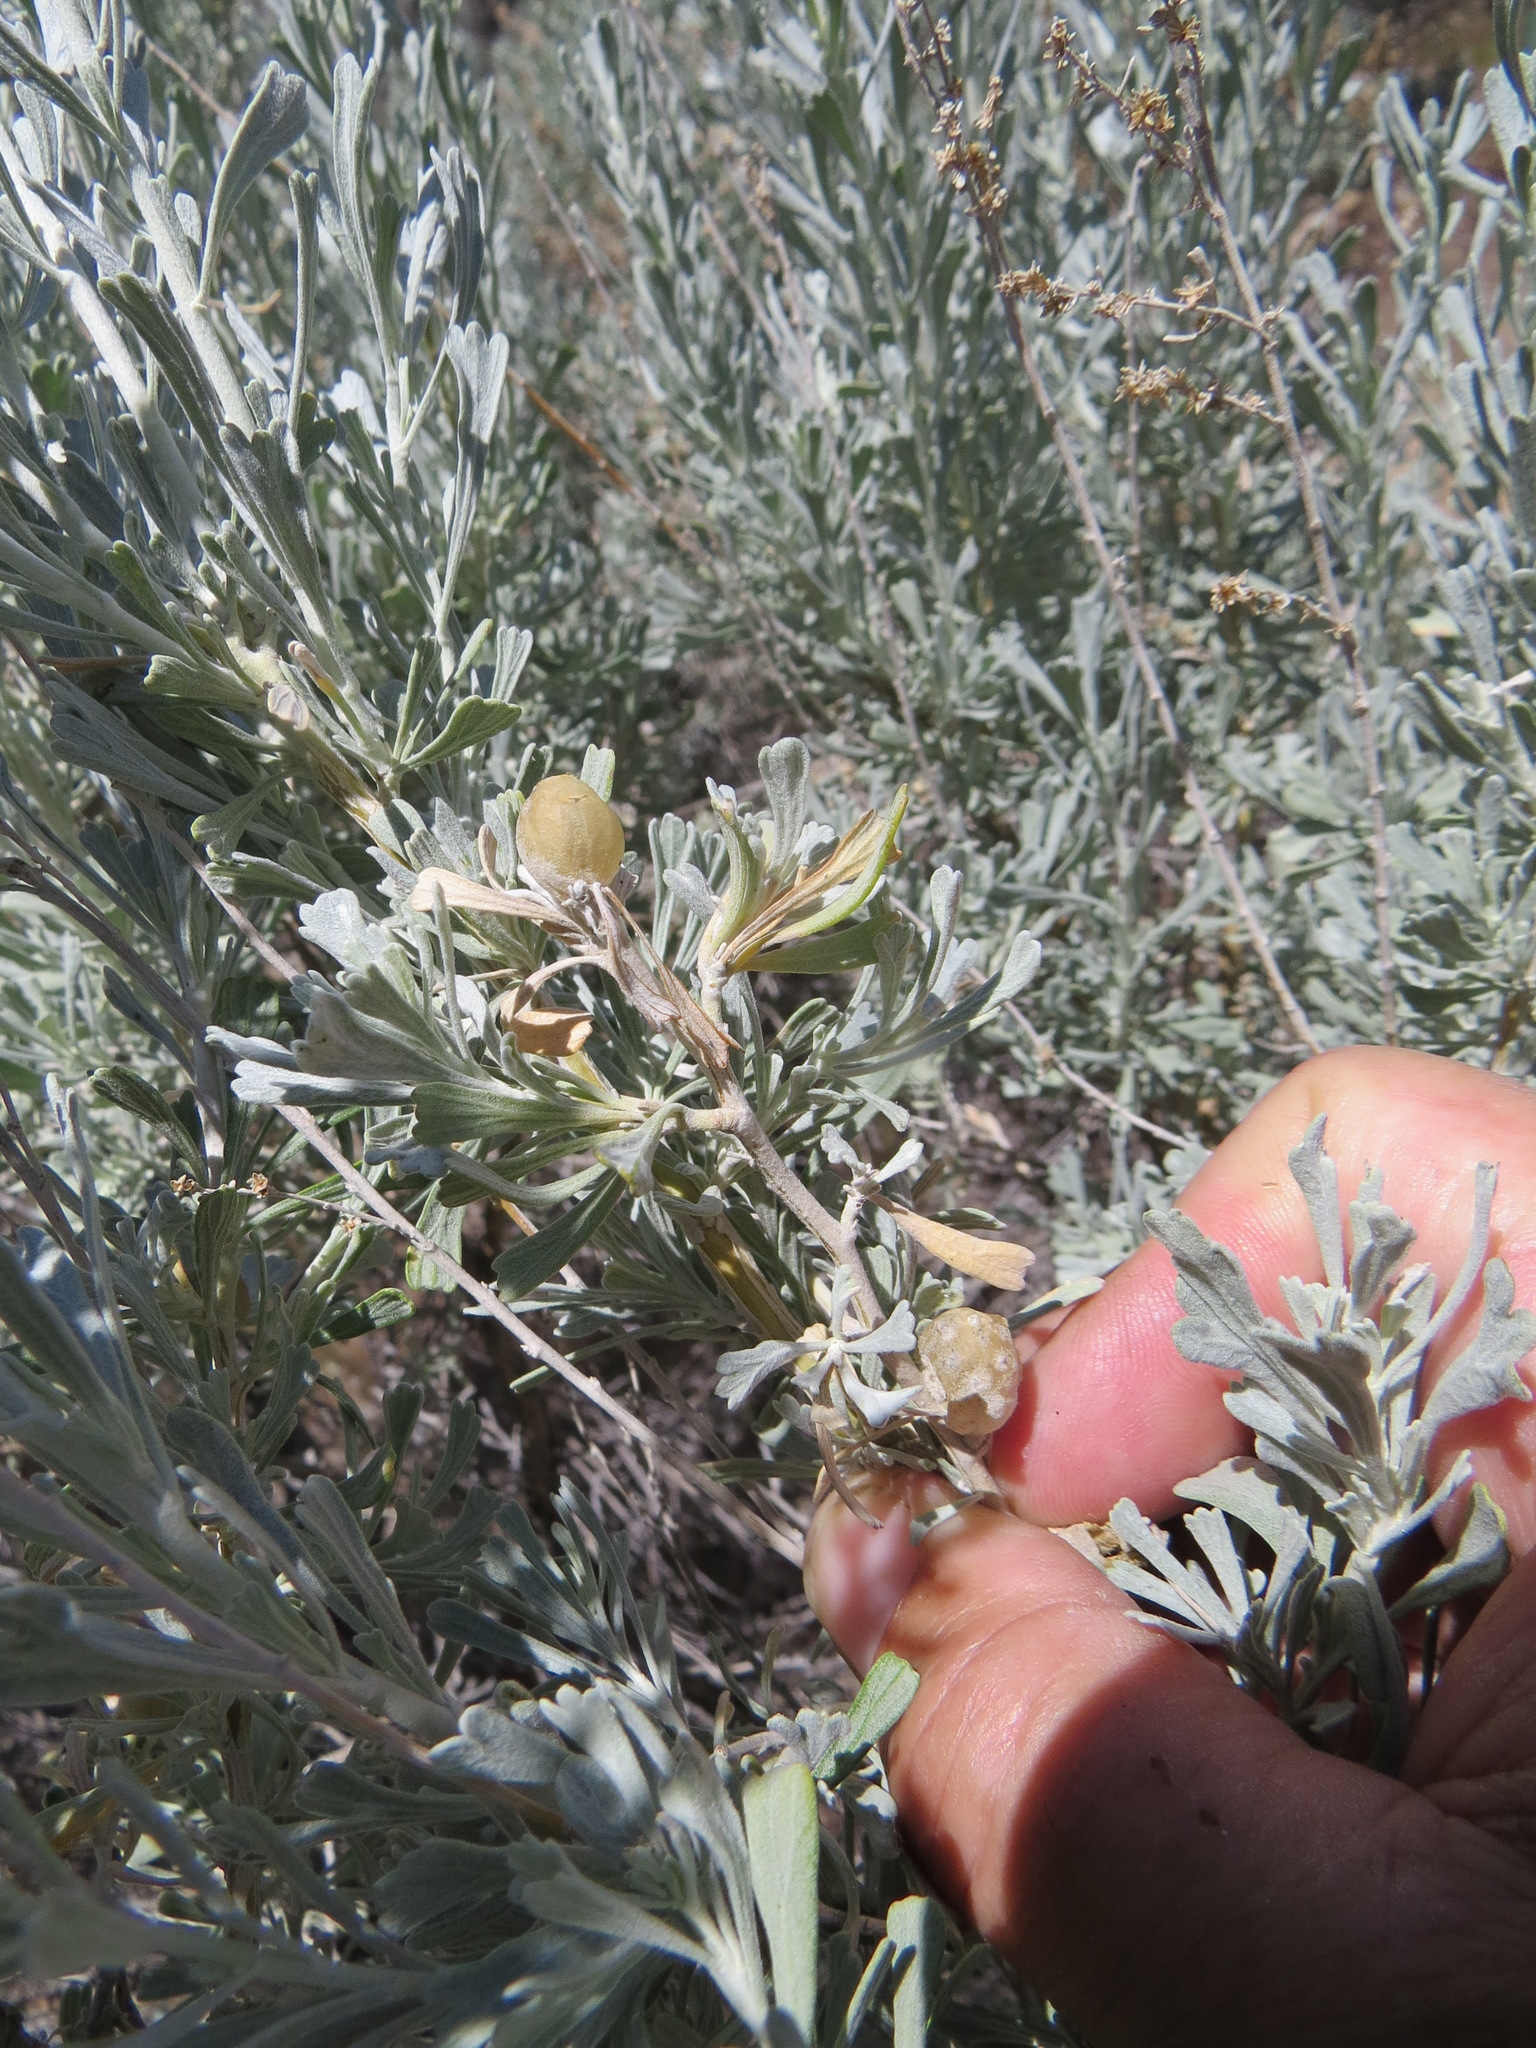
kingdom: Animalia
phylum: Arthropoda
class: Insecta
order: Diptera
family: Cecidomyiidae
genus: Rhopalomyia
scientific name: Rhopalomyia obovata
